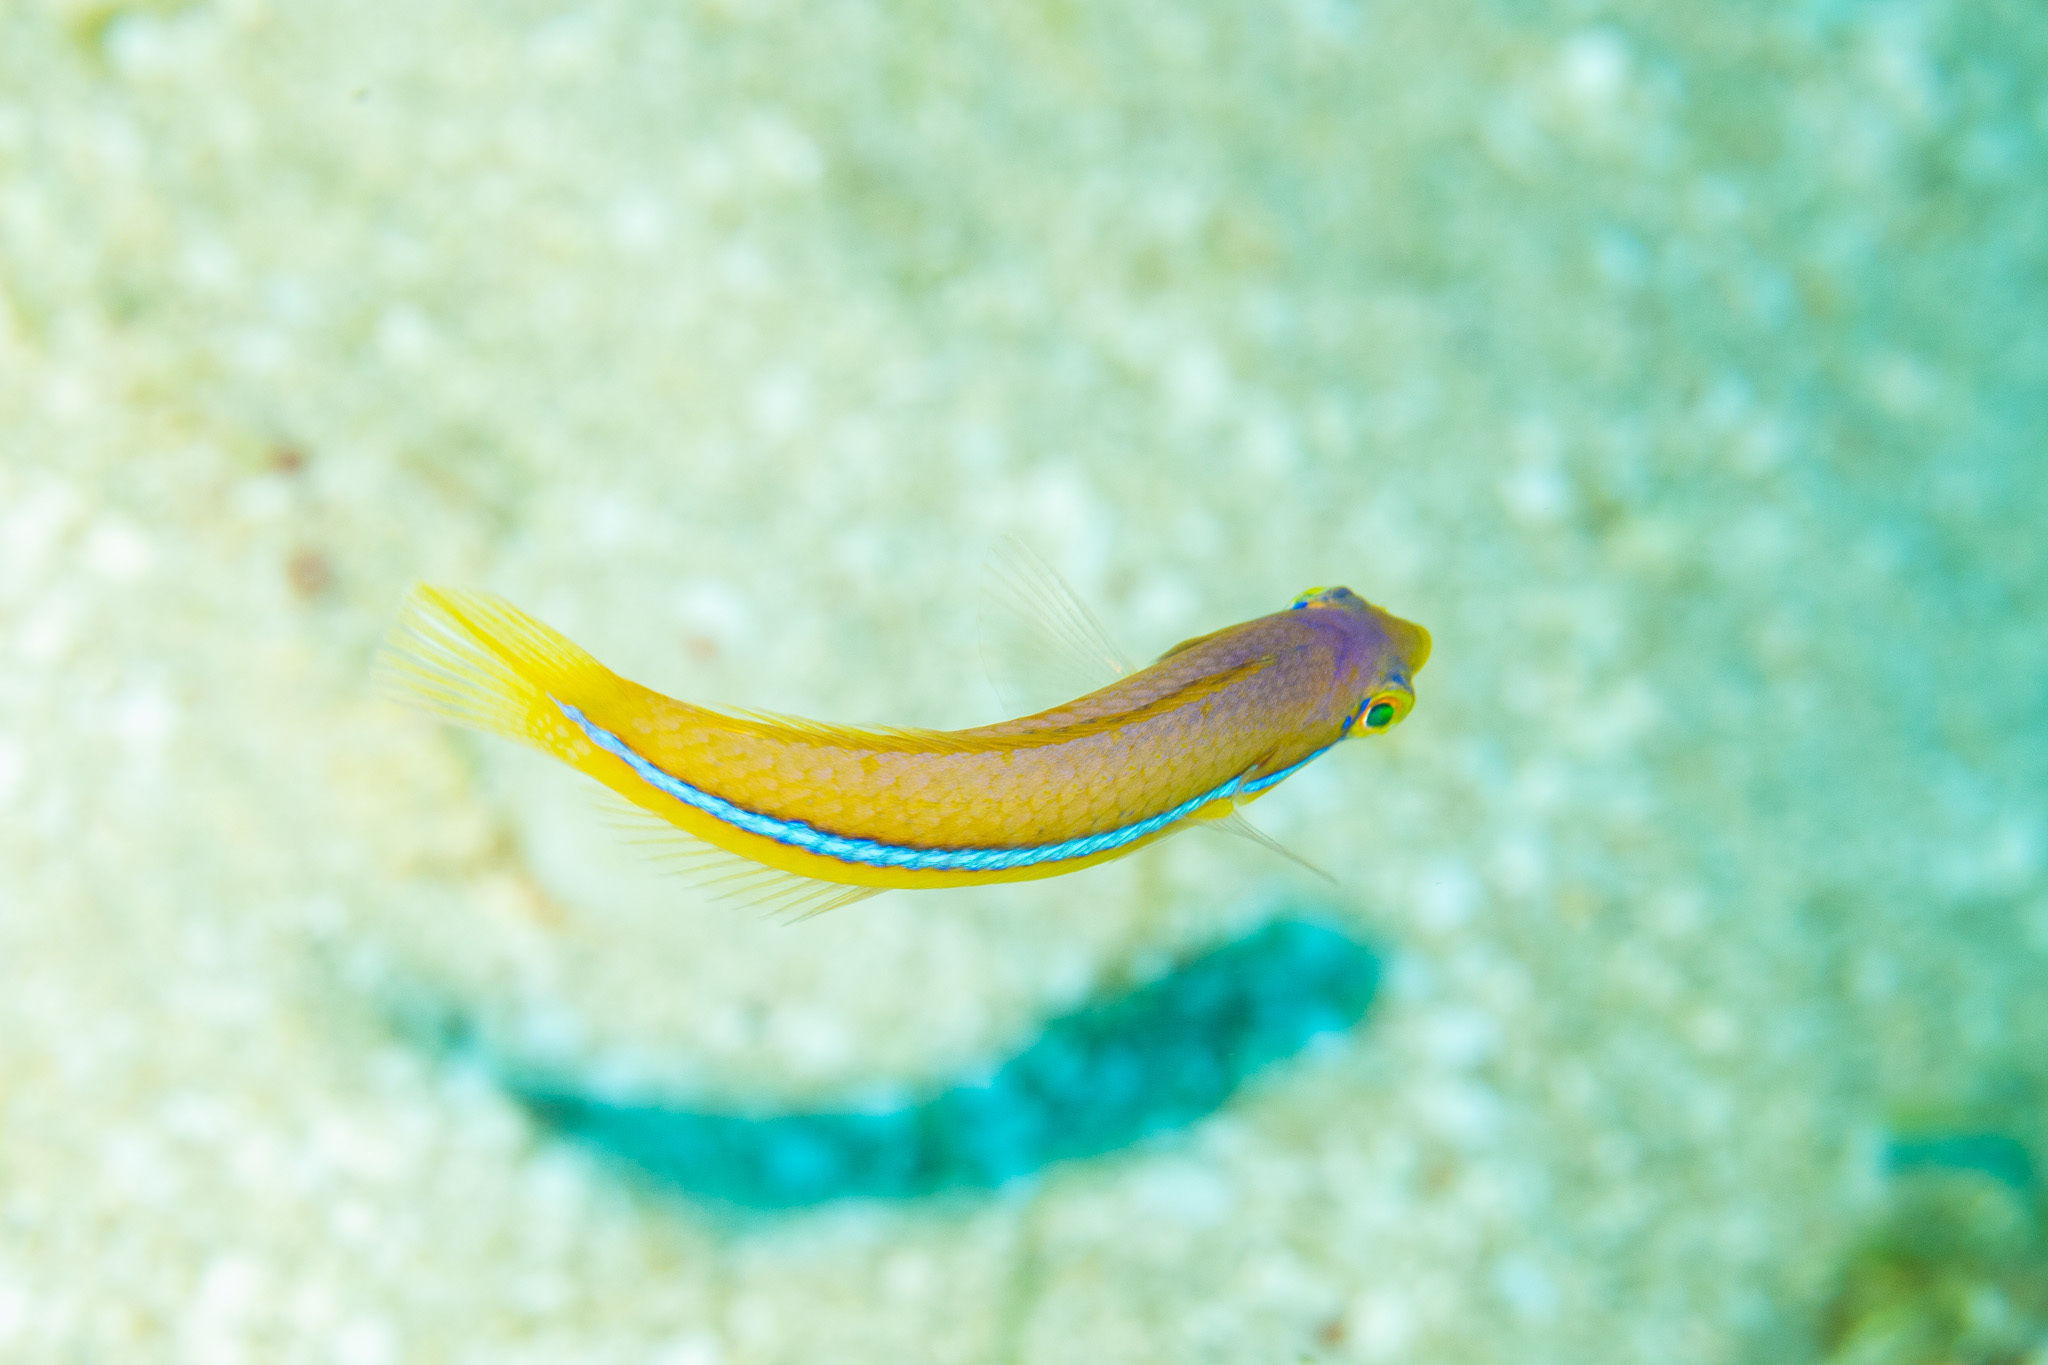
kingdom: Animalia
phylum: Chordata
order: Perciformes
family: Labridae
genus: Halichoeres
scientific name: Halichoeres garnoti
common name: Yellowhead wrasse
